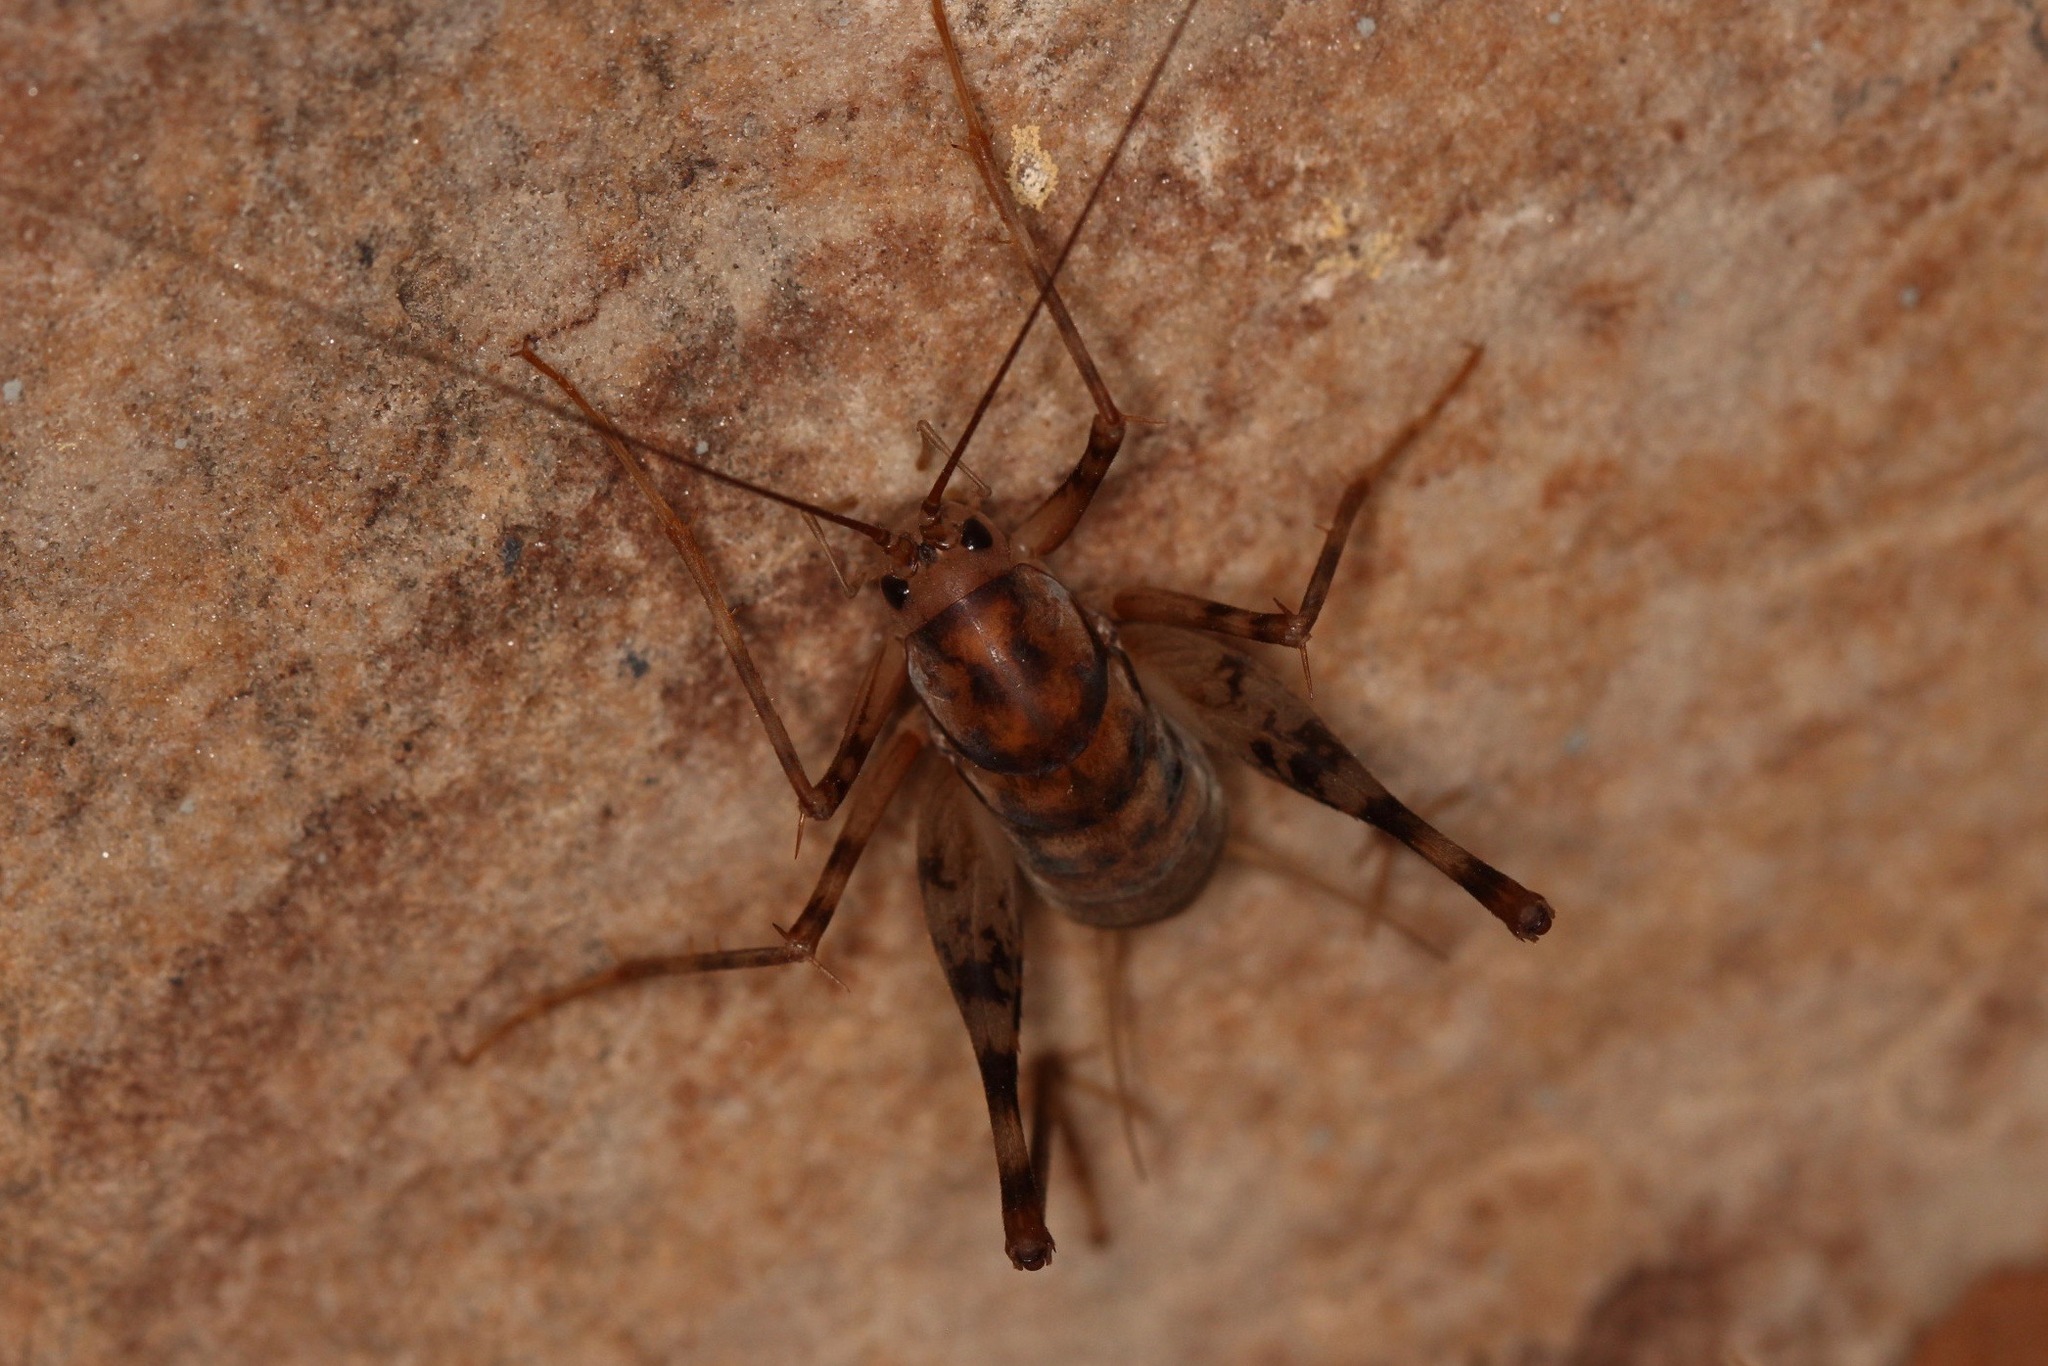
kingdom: Animalia
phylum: Arthropoda
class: Insecta
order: Orthoptera
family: Rhaphidophoridae
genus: Tachycines
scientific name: Tachycines asynamorus
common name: Greenhouse camel cricket
